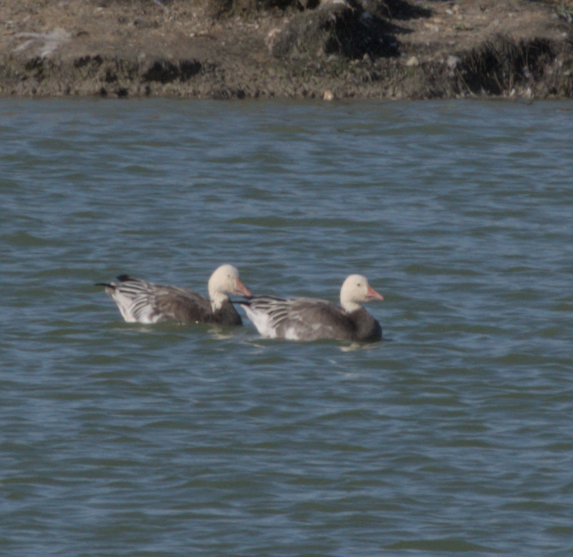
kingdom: Animalia
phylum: Chordata
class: Aves
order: Anseriformes
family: Anatidae
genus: Anser
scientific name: Anser caerulescens
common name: Snow goose
